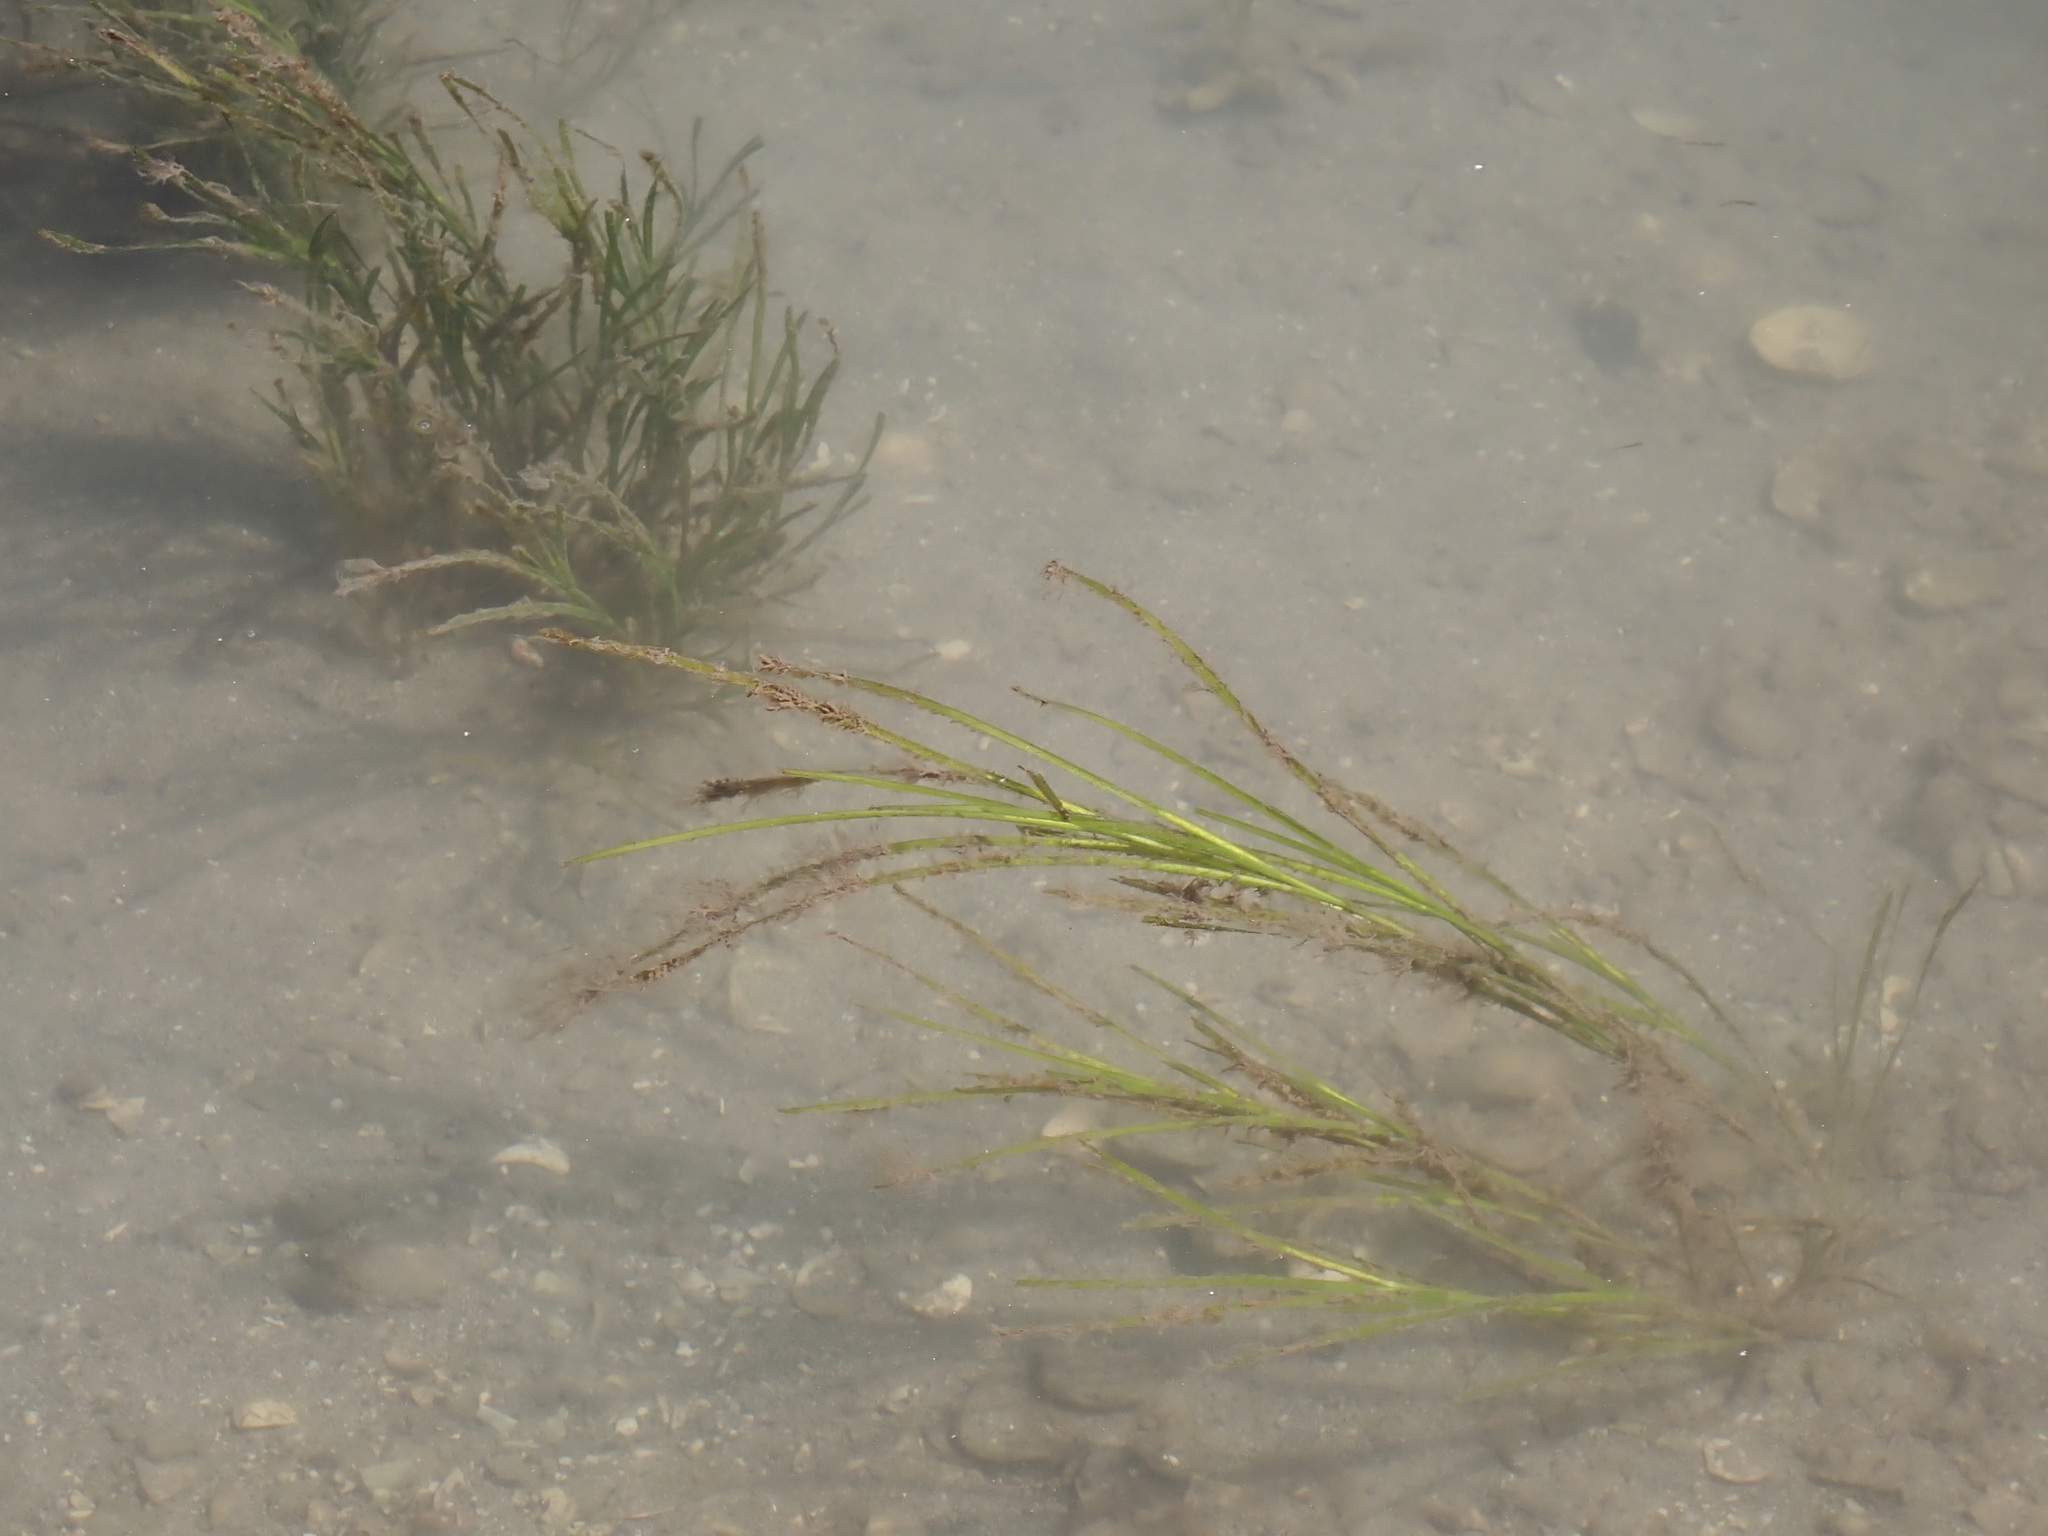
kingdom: Plantae
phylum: Tracheophyta
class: Liliopsida
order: Alismatales
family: Zosteraceae
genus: Zostera
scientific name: Zostera marina
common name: Eelgrass
